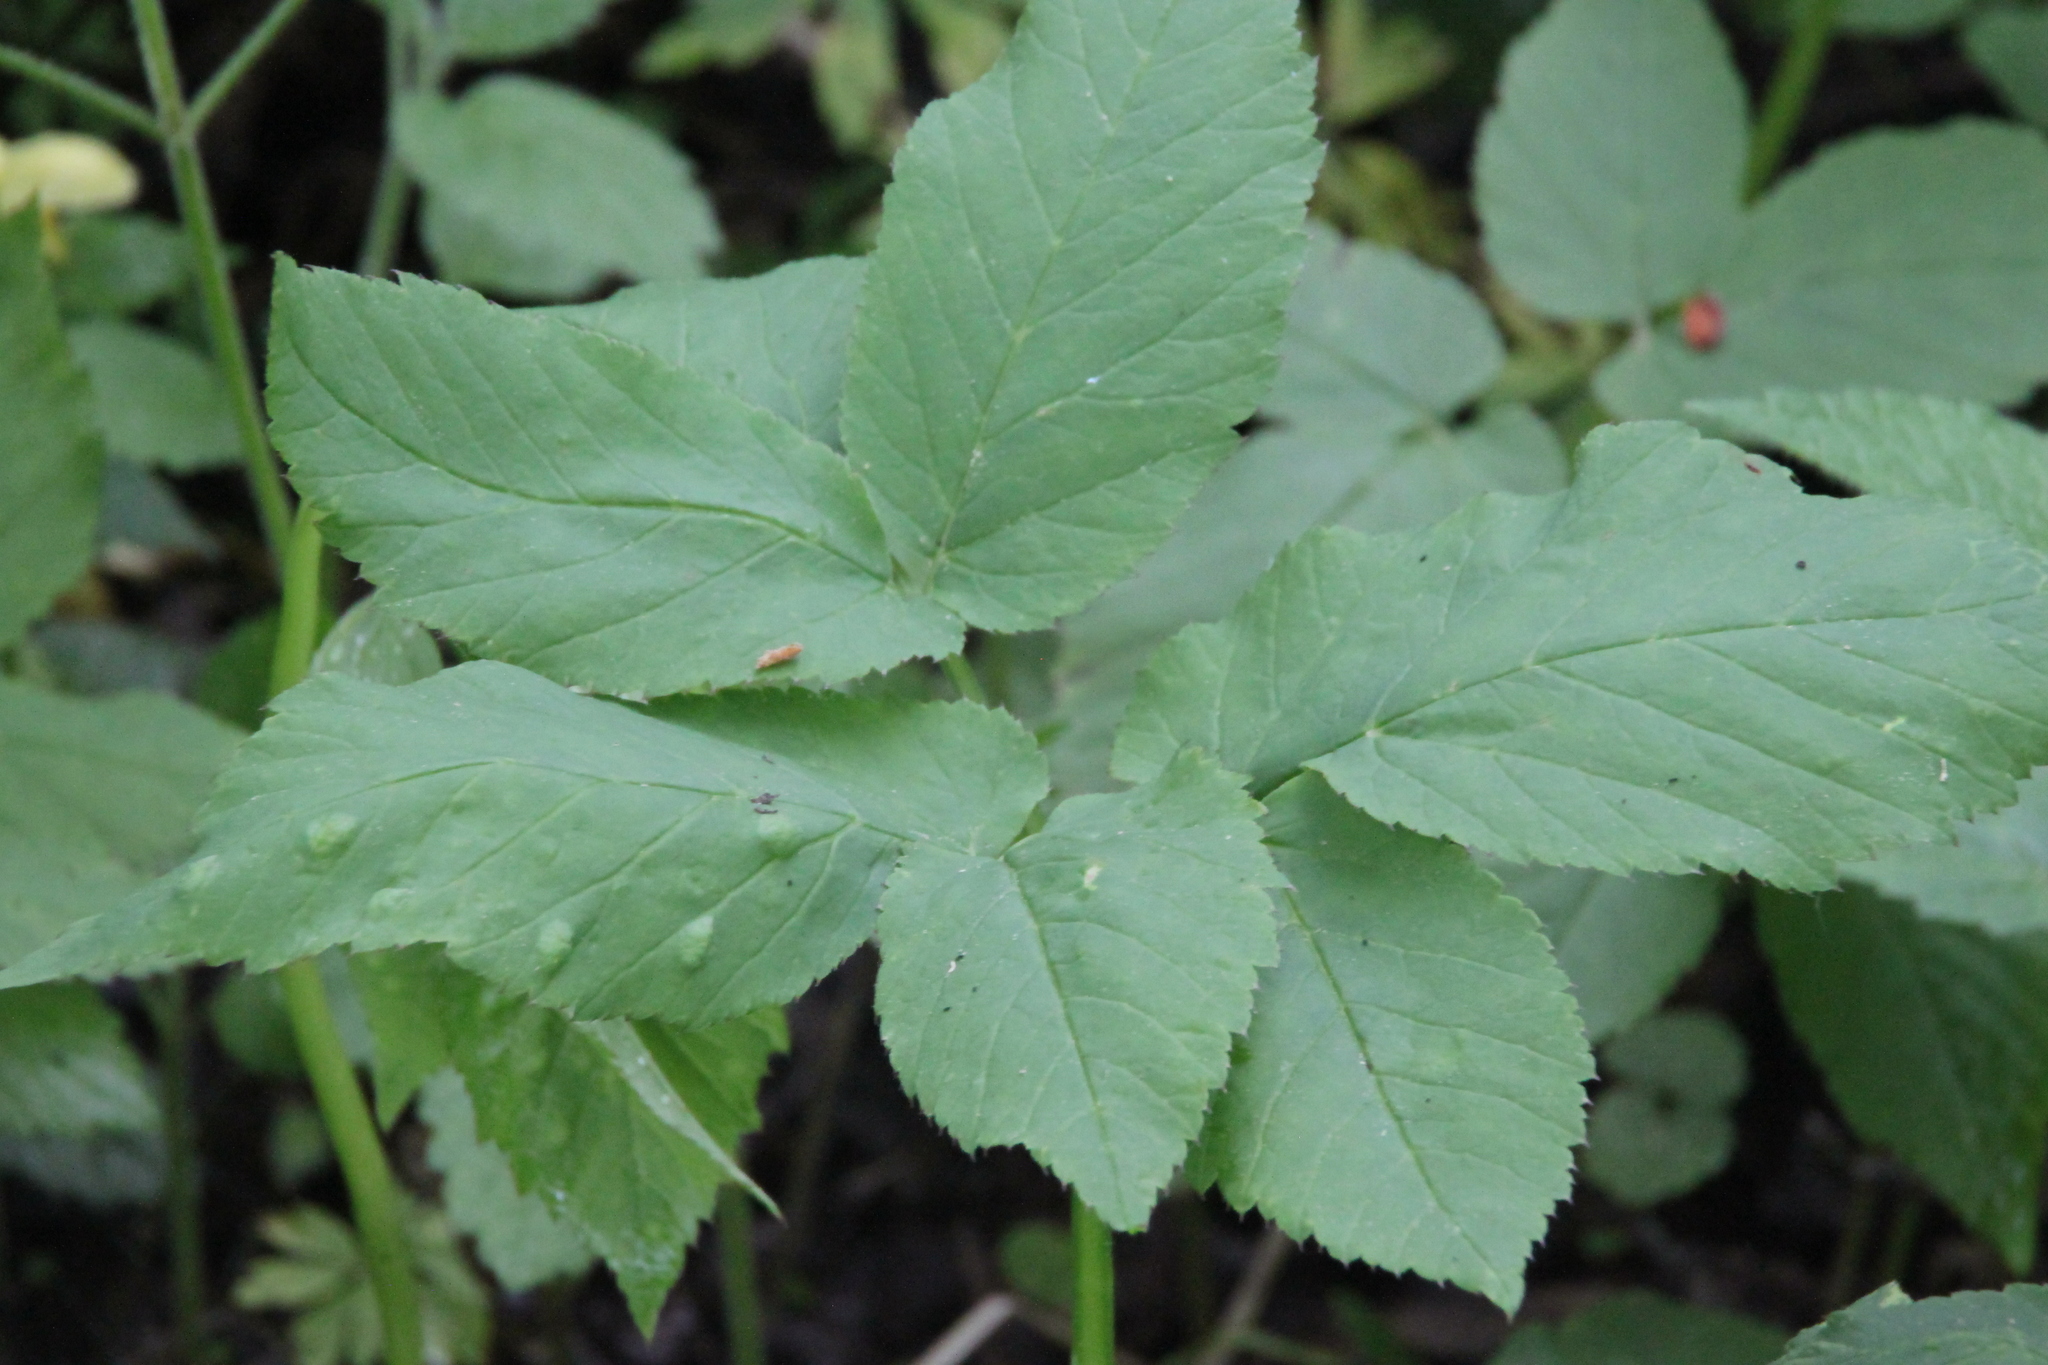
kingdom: Plantae
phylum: Tracheophyta
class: Magnoliopsida
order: Apiales
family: Apiaceae
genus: Aegopodium
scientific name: Aegopodium podagraria
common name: Ground-elder
